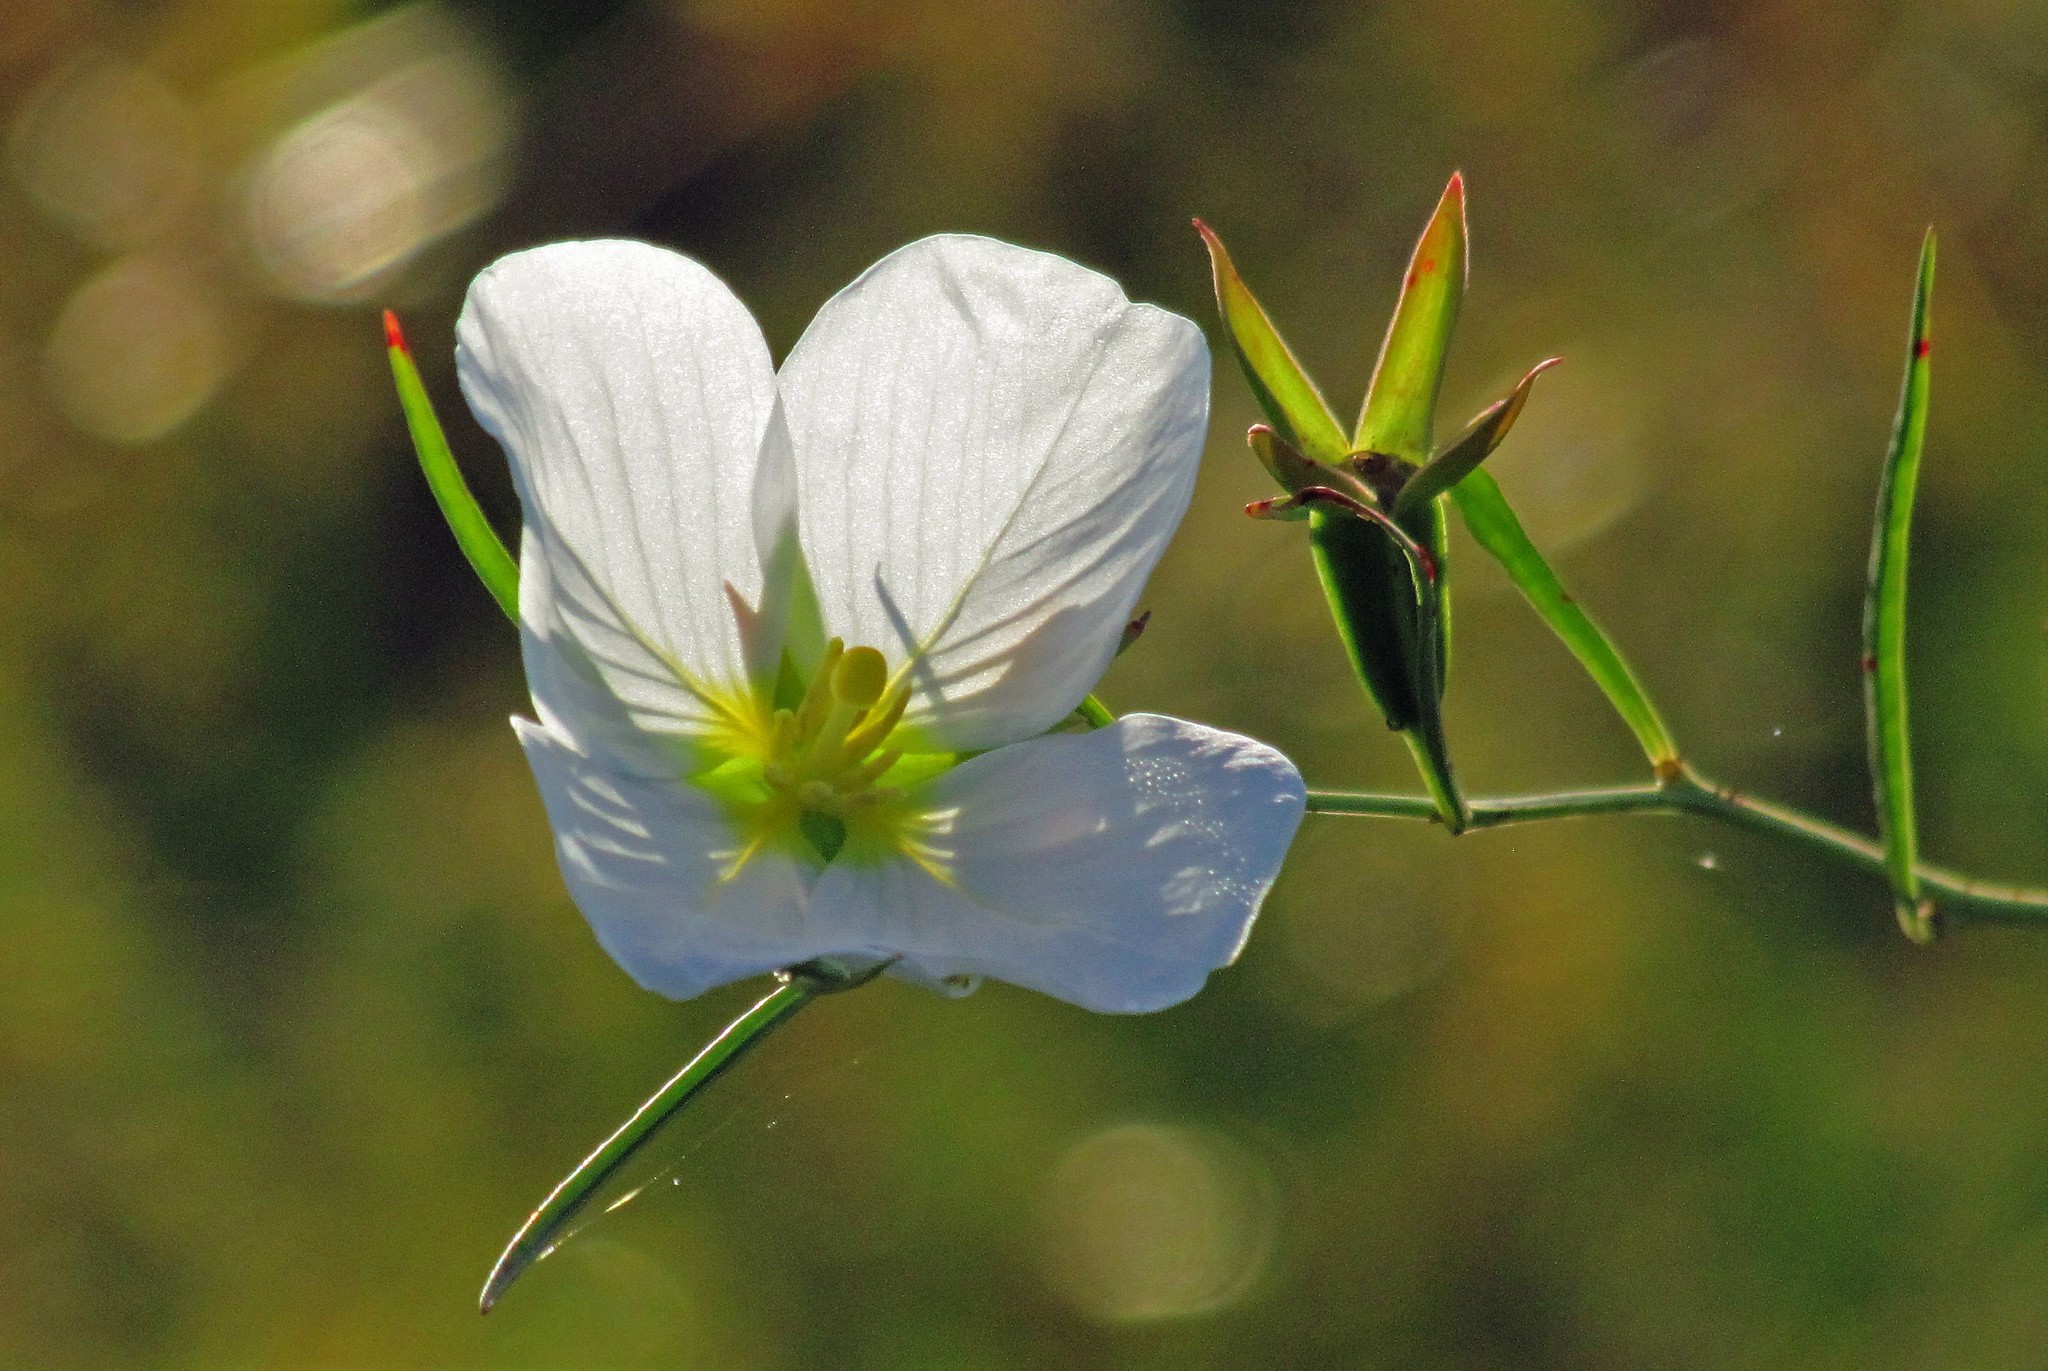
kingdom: Plantae
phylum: Tracheophyta
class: Magnoliopsida
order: Myrtales
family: Onagraceae
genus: Ludwigia
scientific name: Ludwigia major
